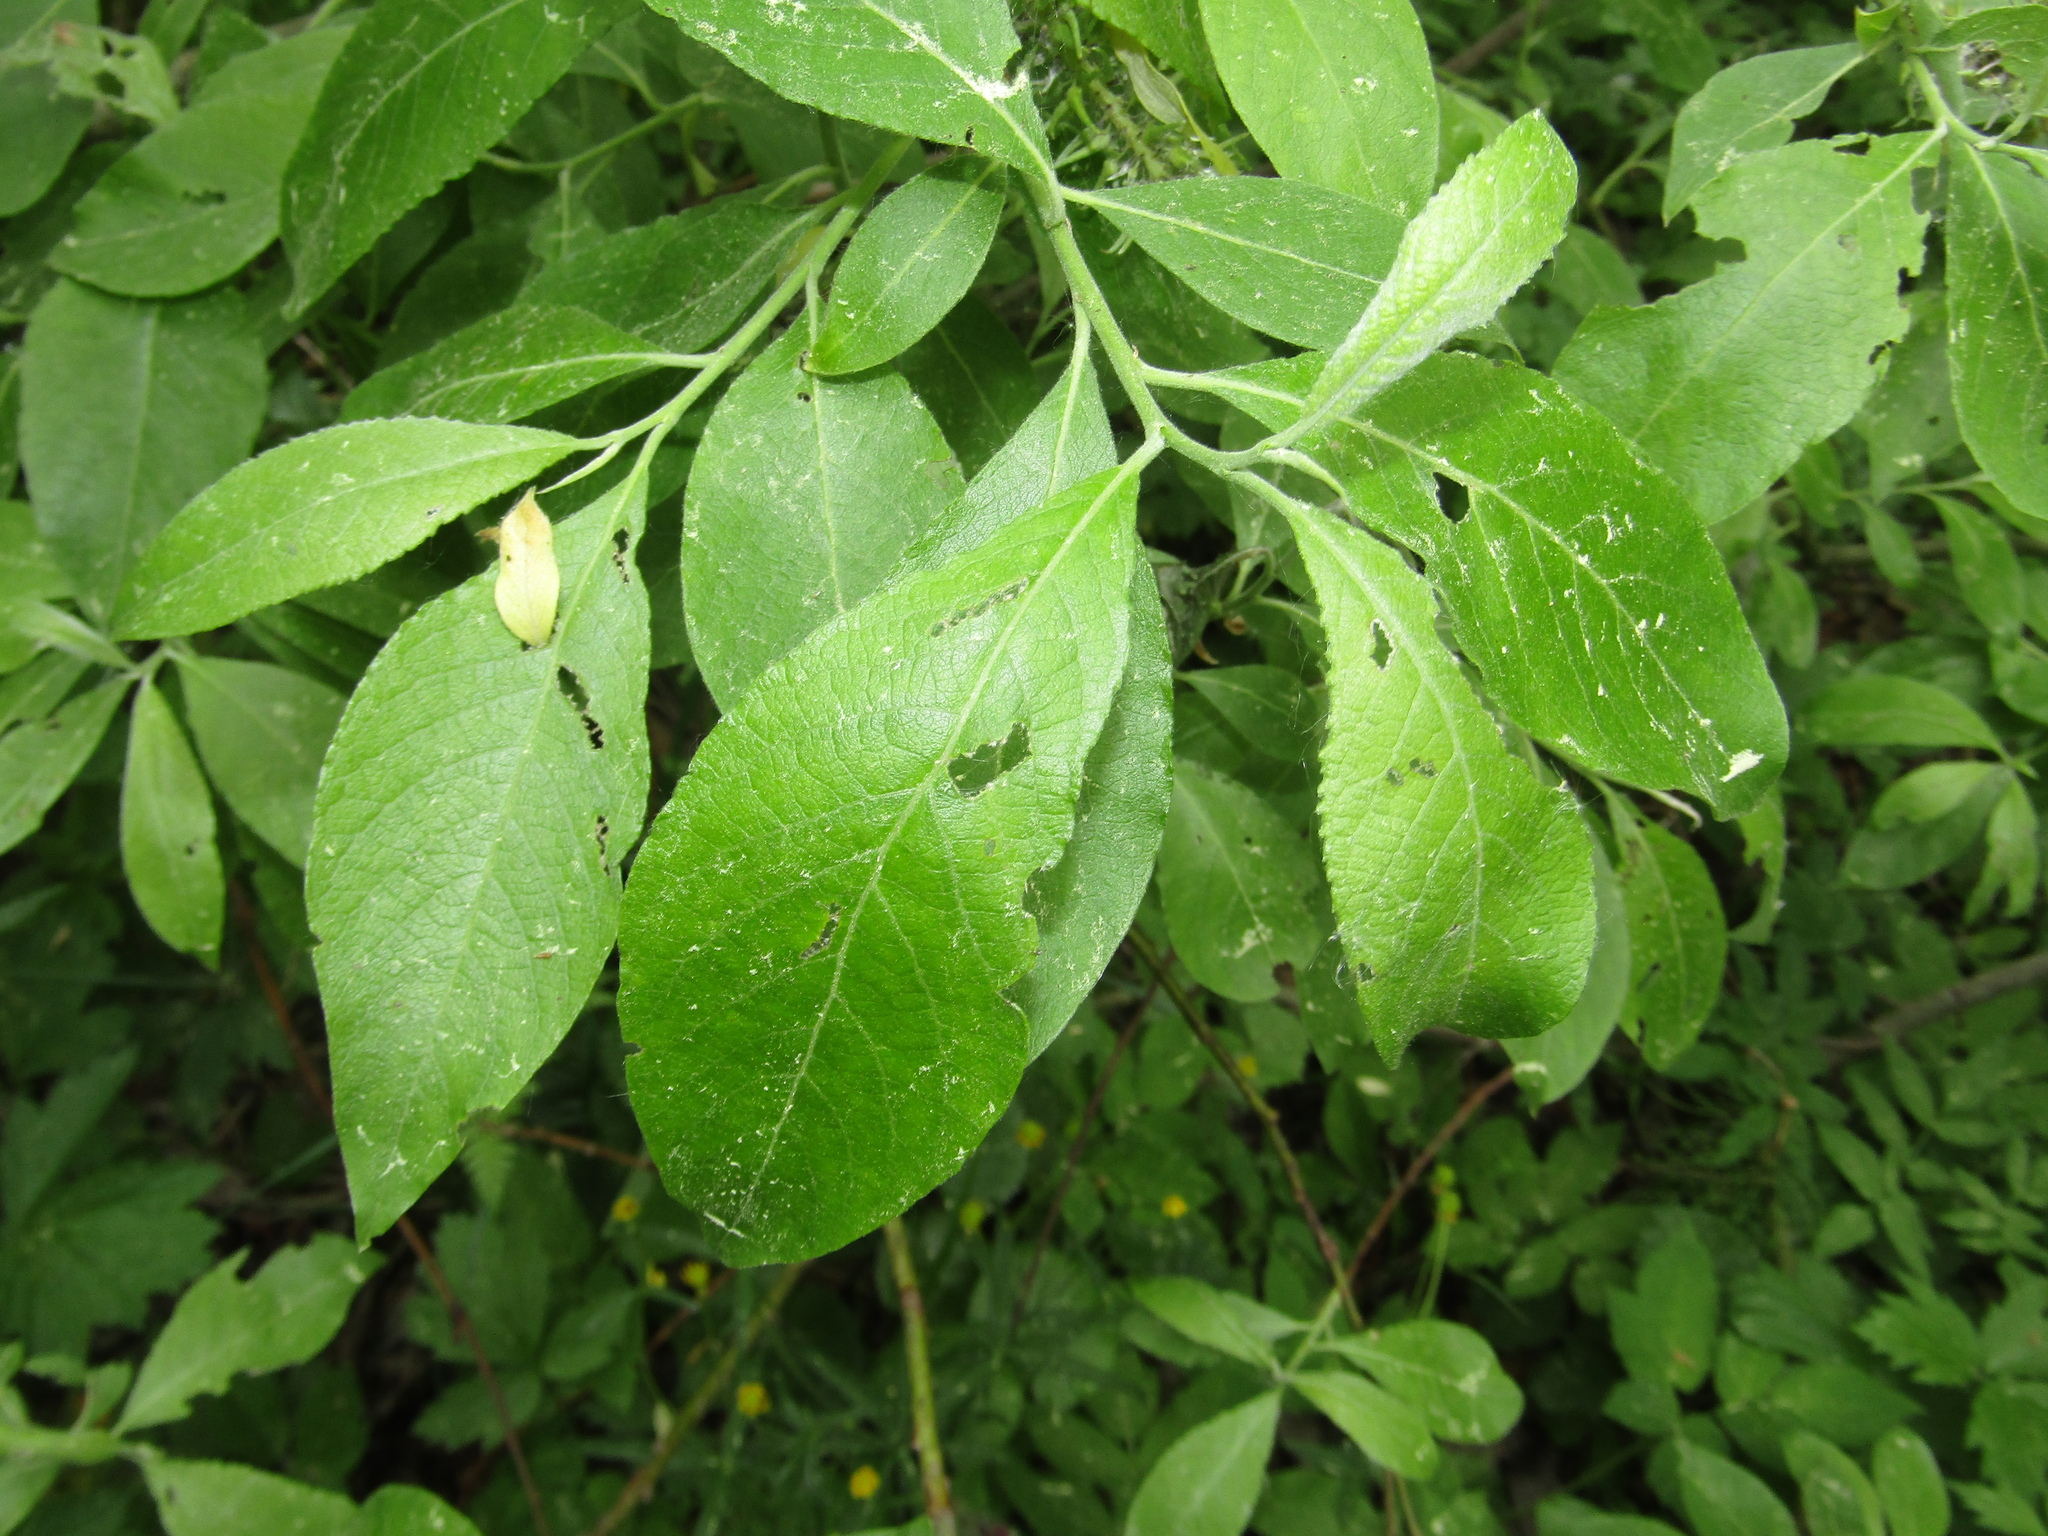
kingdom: Plantae
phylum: Tracheophyta
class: Magnoliopsida
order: Malpighiales
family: Salicaceae
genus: Salix
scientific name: Salix cinerea
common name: Common sallow
